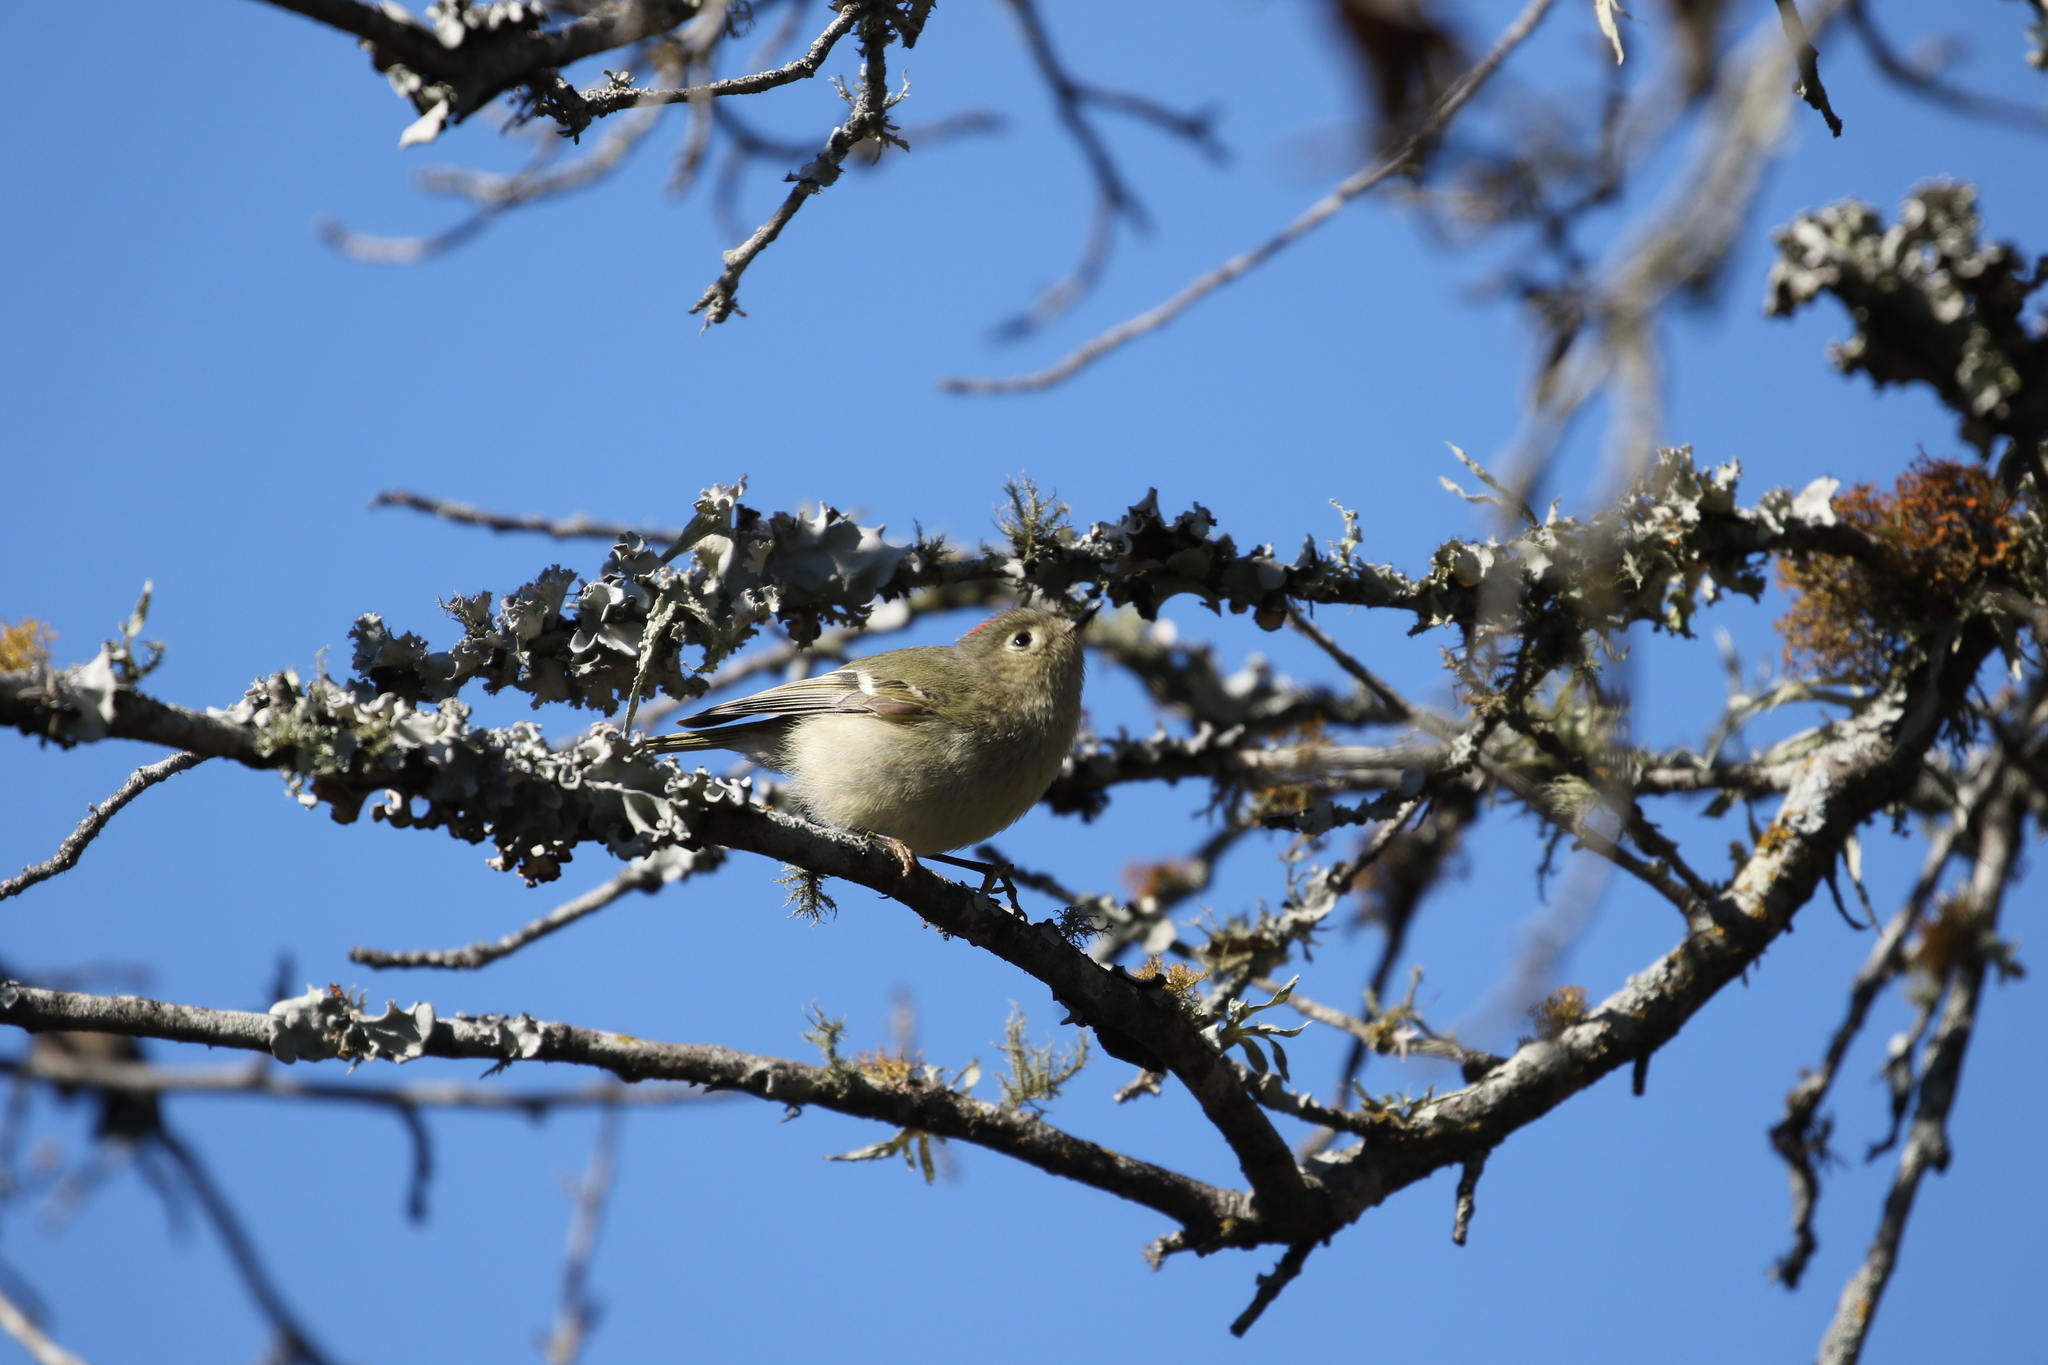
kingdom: Animalia
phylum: Chordata
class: Aves
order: Passeriformes
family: Regulidae
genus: Regulus
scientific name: Regulus calendula
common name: Ruby-crowned kinglet
